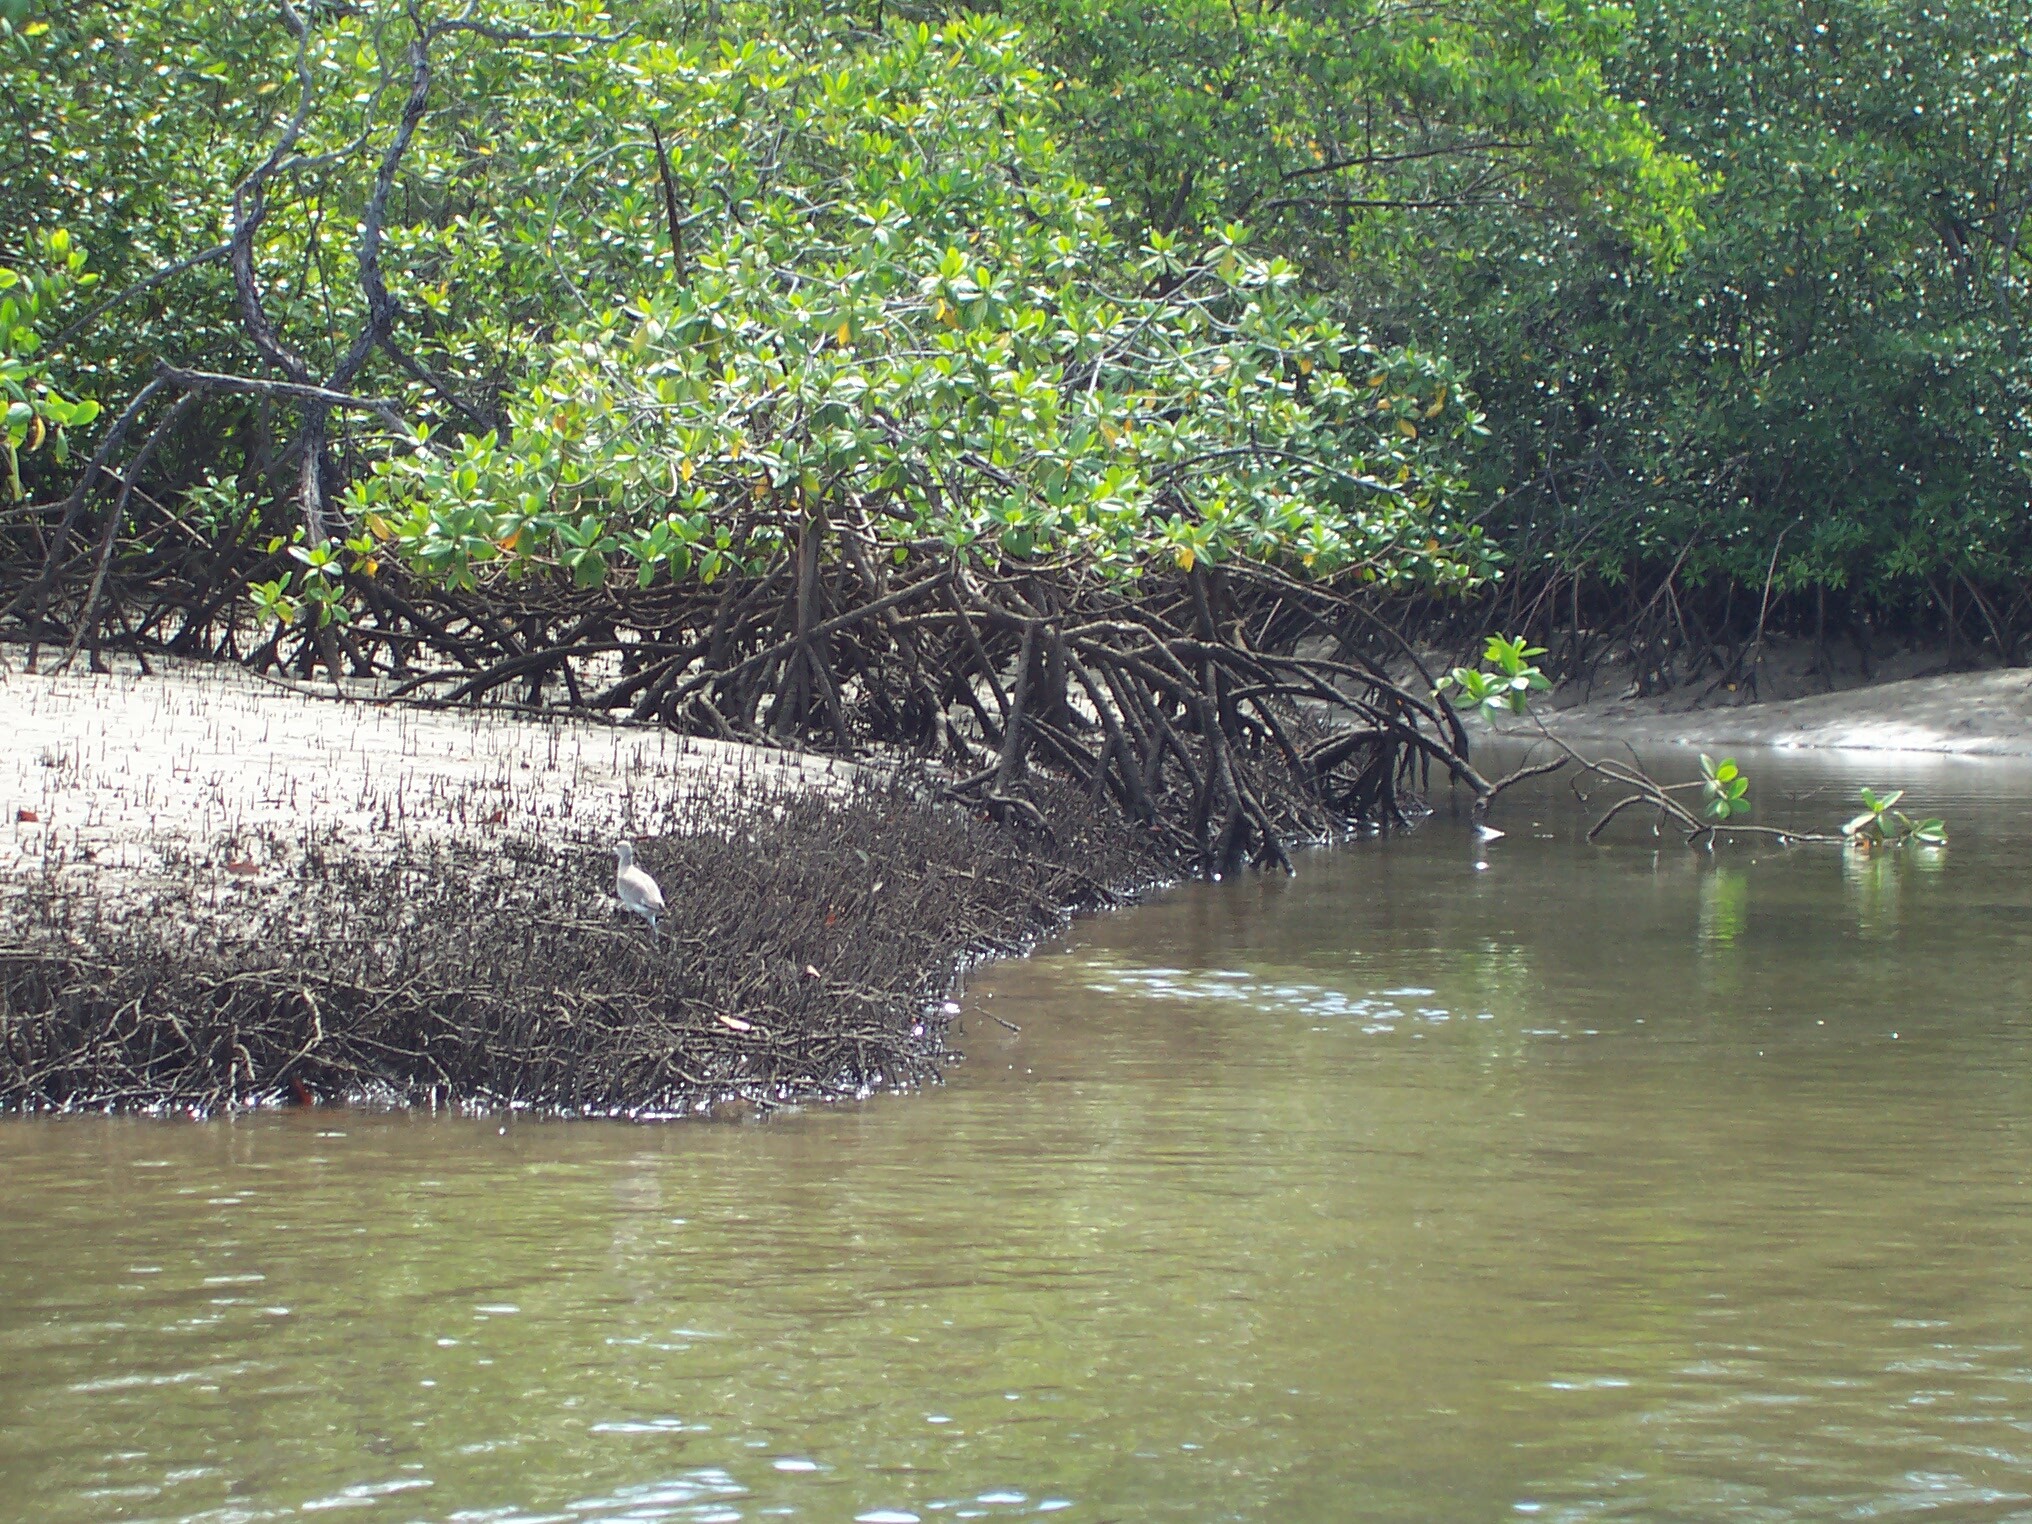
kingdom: Animalia
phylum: Chordata
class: Aves
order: Charadriiformes
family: Scolopacidae
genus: Tringa
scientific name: Tringa semipalmata
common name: Willet
